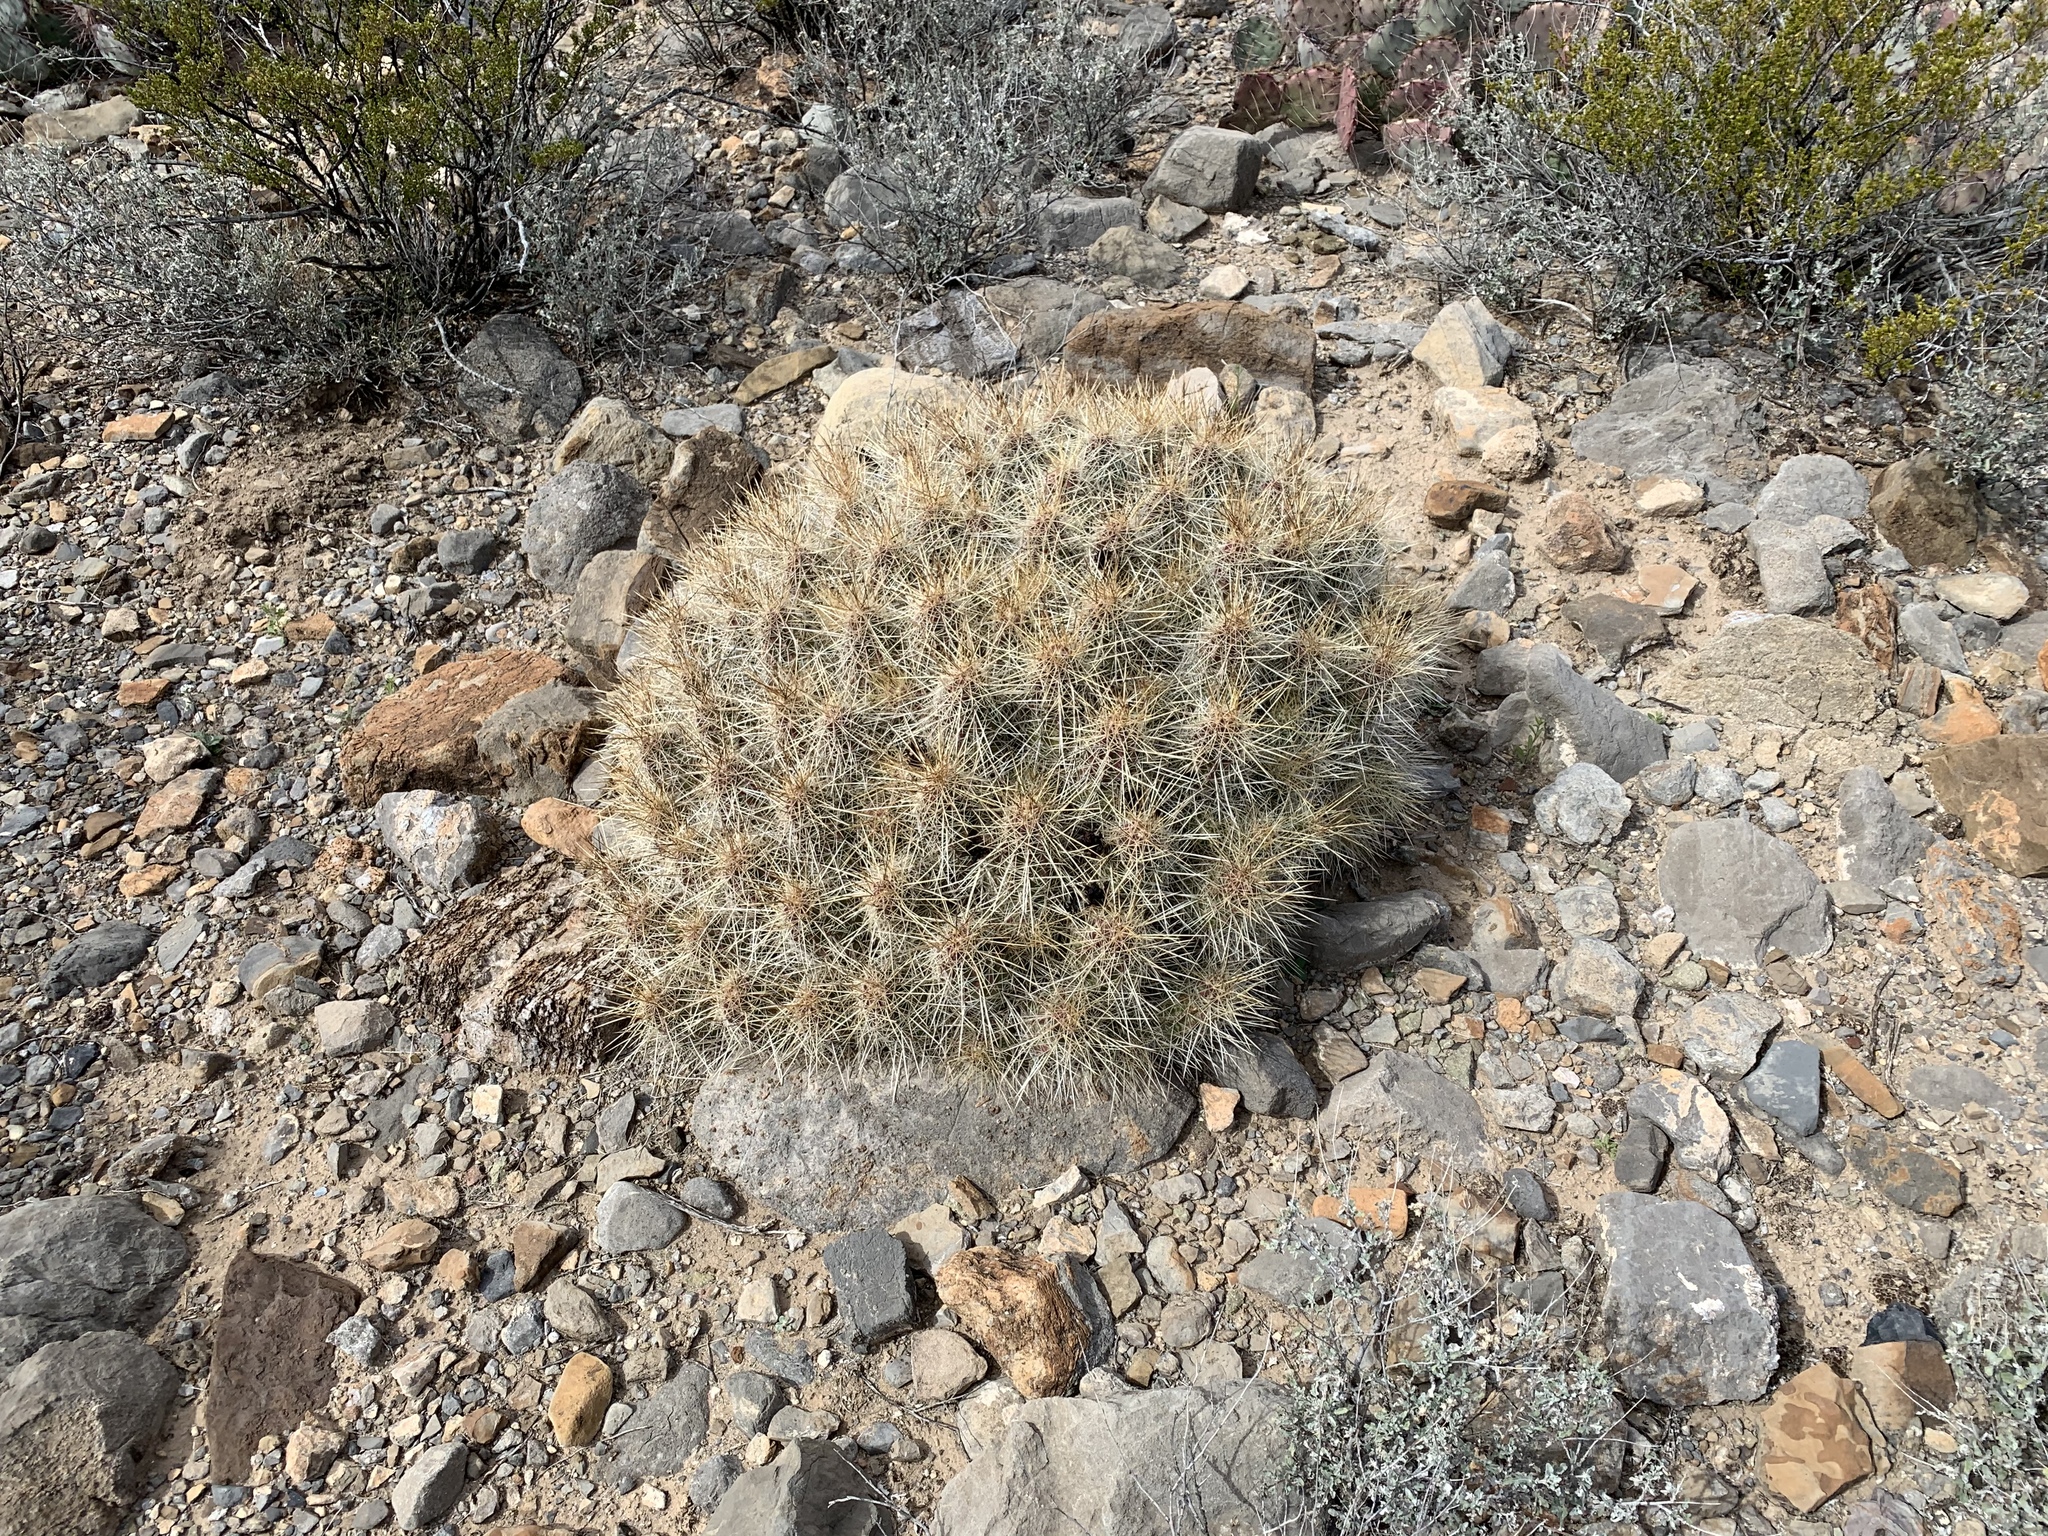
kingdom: Plantae
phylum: Tracheophyta
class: Magnoliopsida
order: Caryophyllales
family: Cactaceae
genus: Echinocereus
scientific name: Echinocereus stramineus
